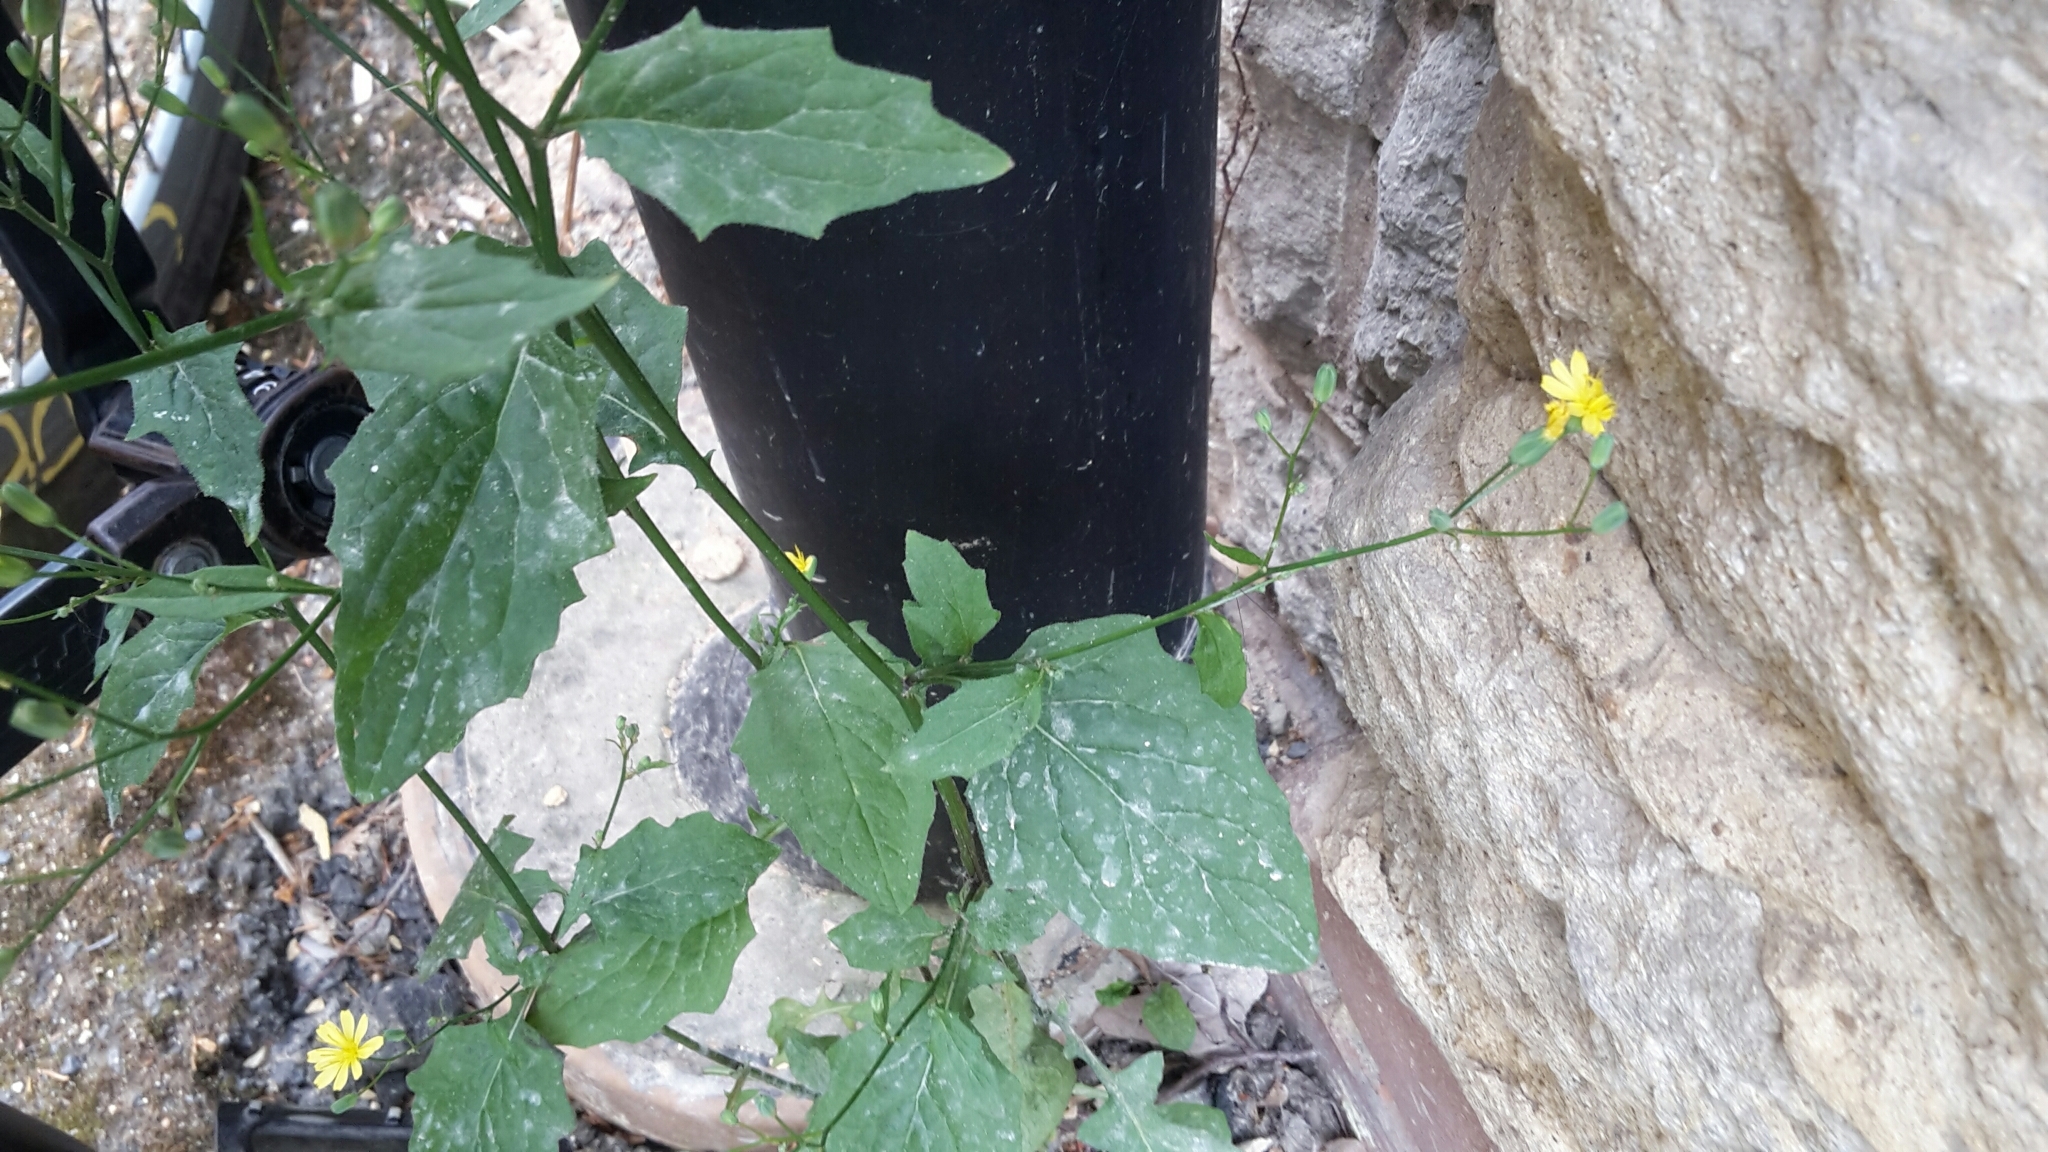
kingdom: Plantae
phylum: Tracheophyta
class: Magnoliopsida
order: Asterales
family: Asteraceae
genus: Lapsana
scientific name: Lapsana communis
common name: Nipplewort
